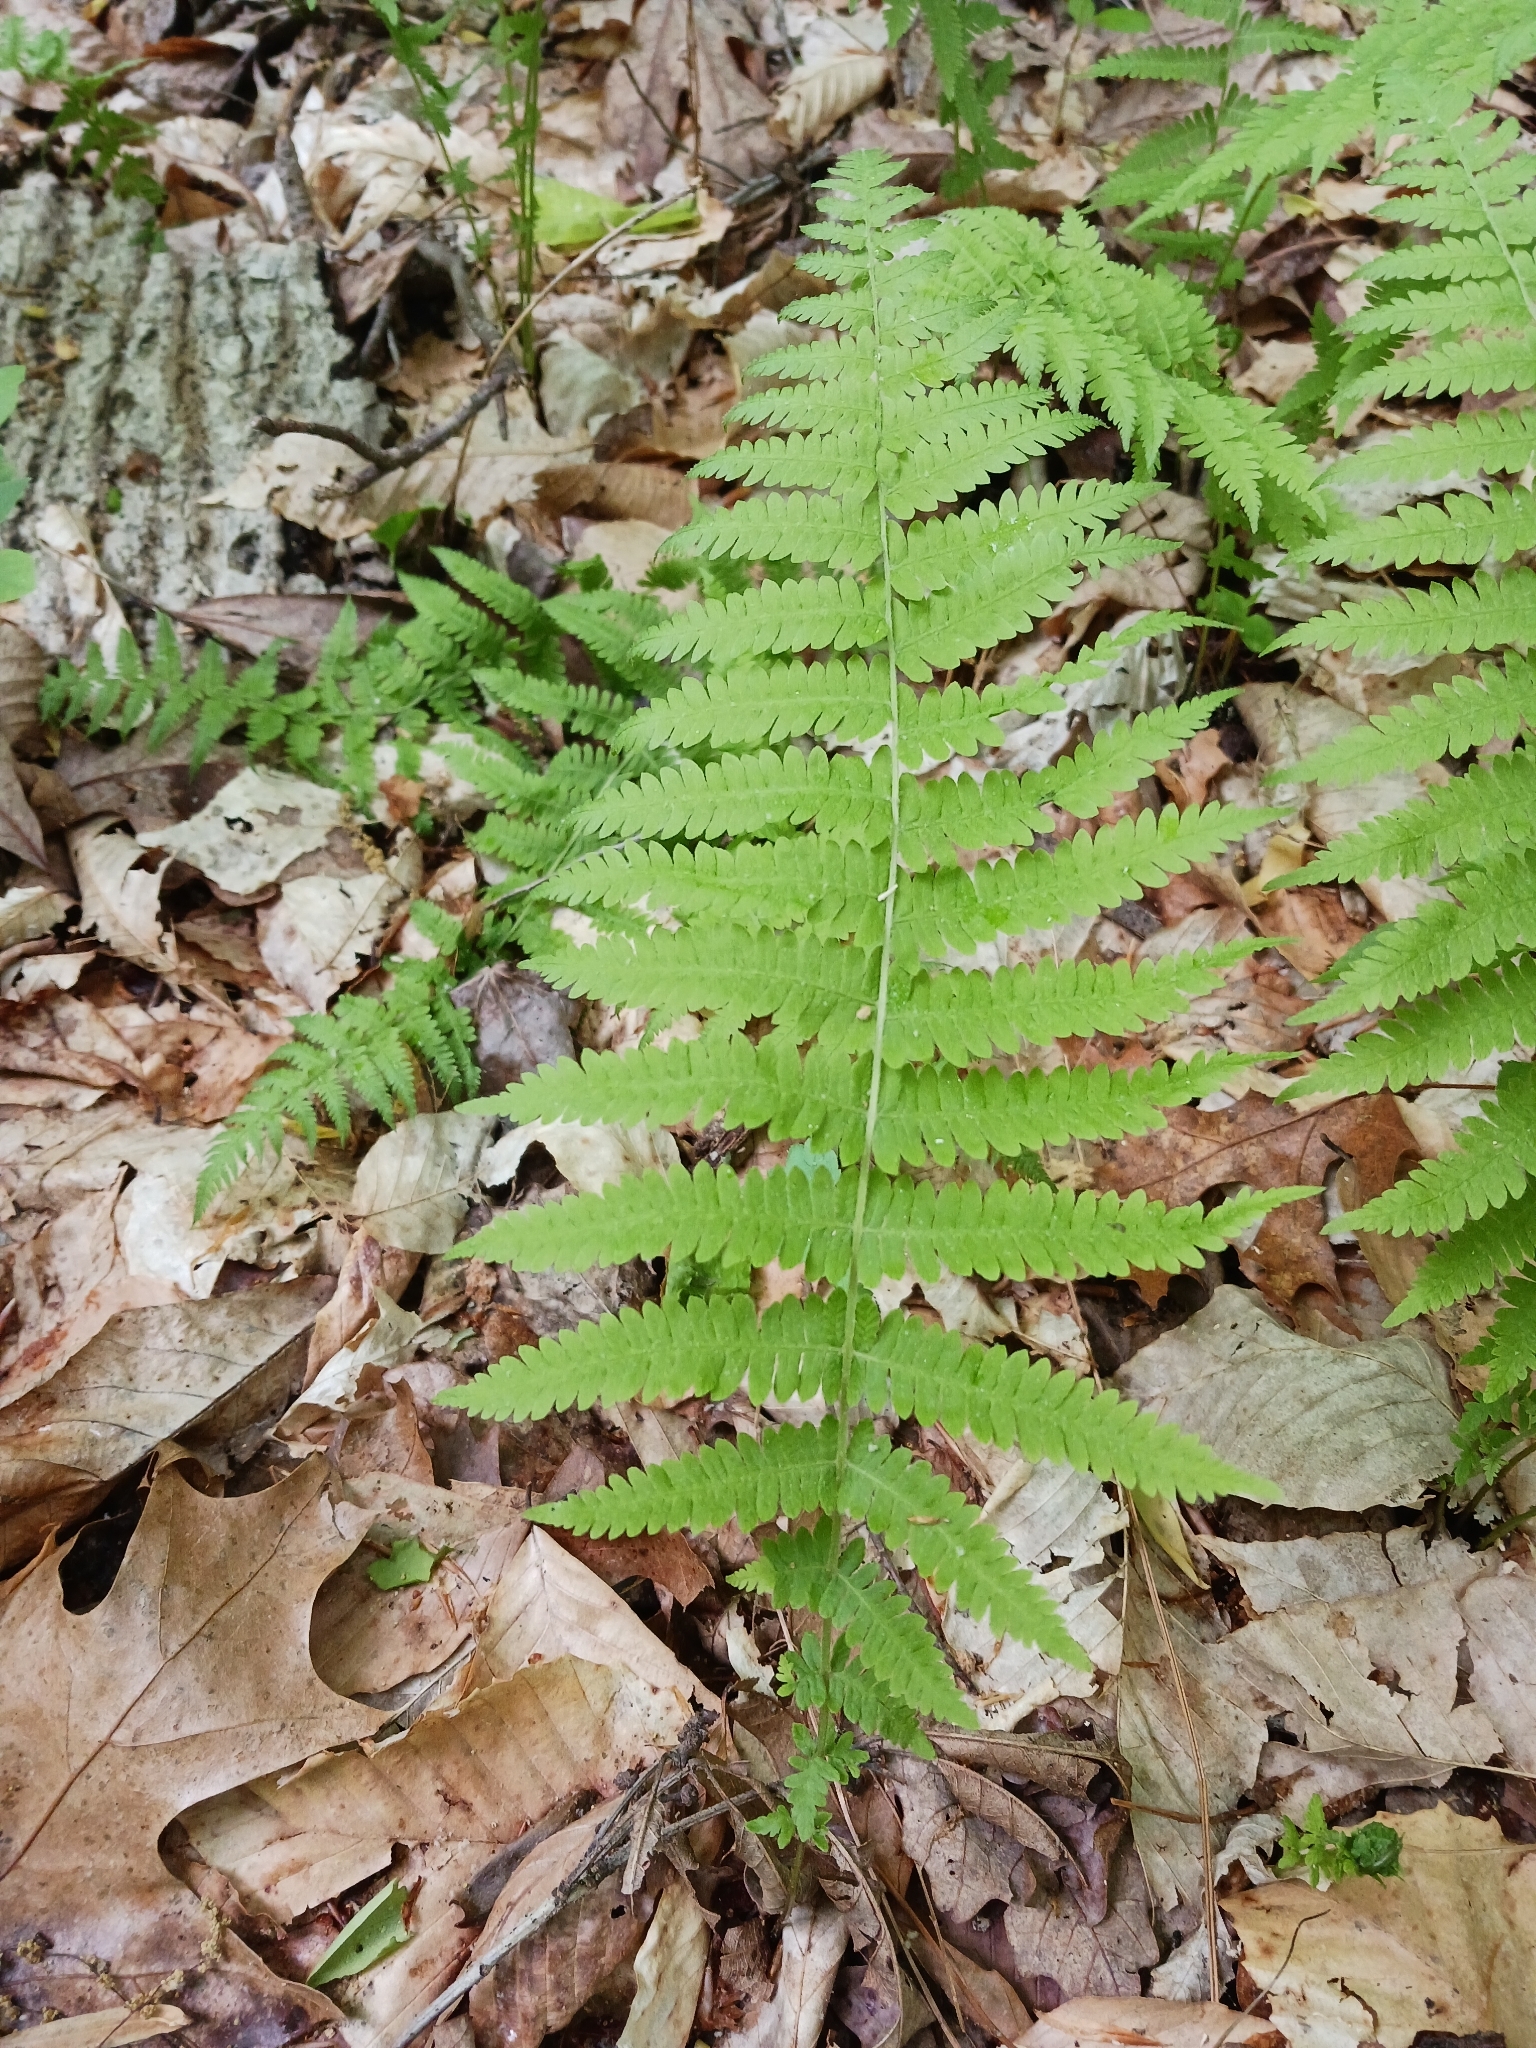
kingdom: Plantae
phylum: Tracheophyta
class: Polypodiopsida
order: Polypodiales
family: Thelypteridaceae
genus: Amauropelta
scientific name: Amauropelta noveboracensis
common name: New york fern
